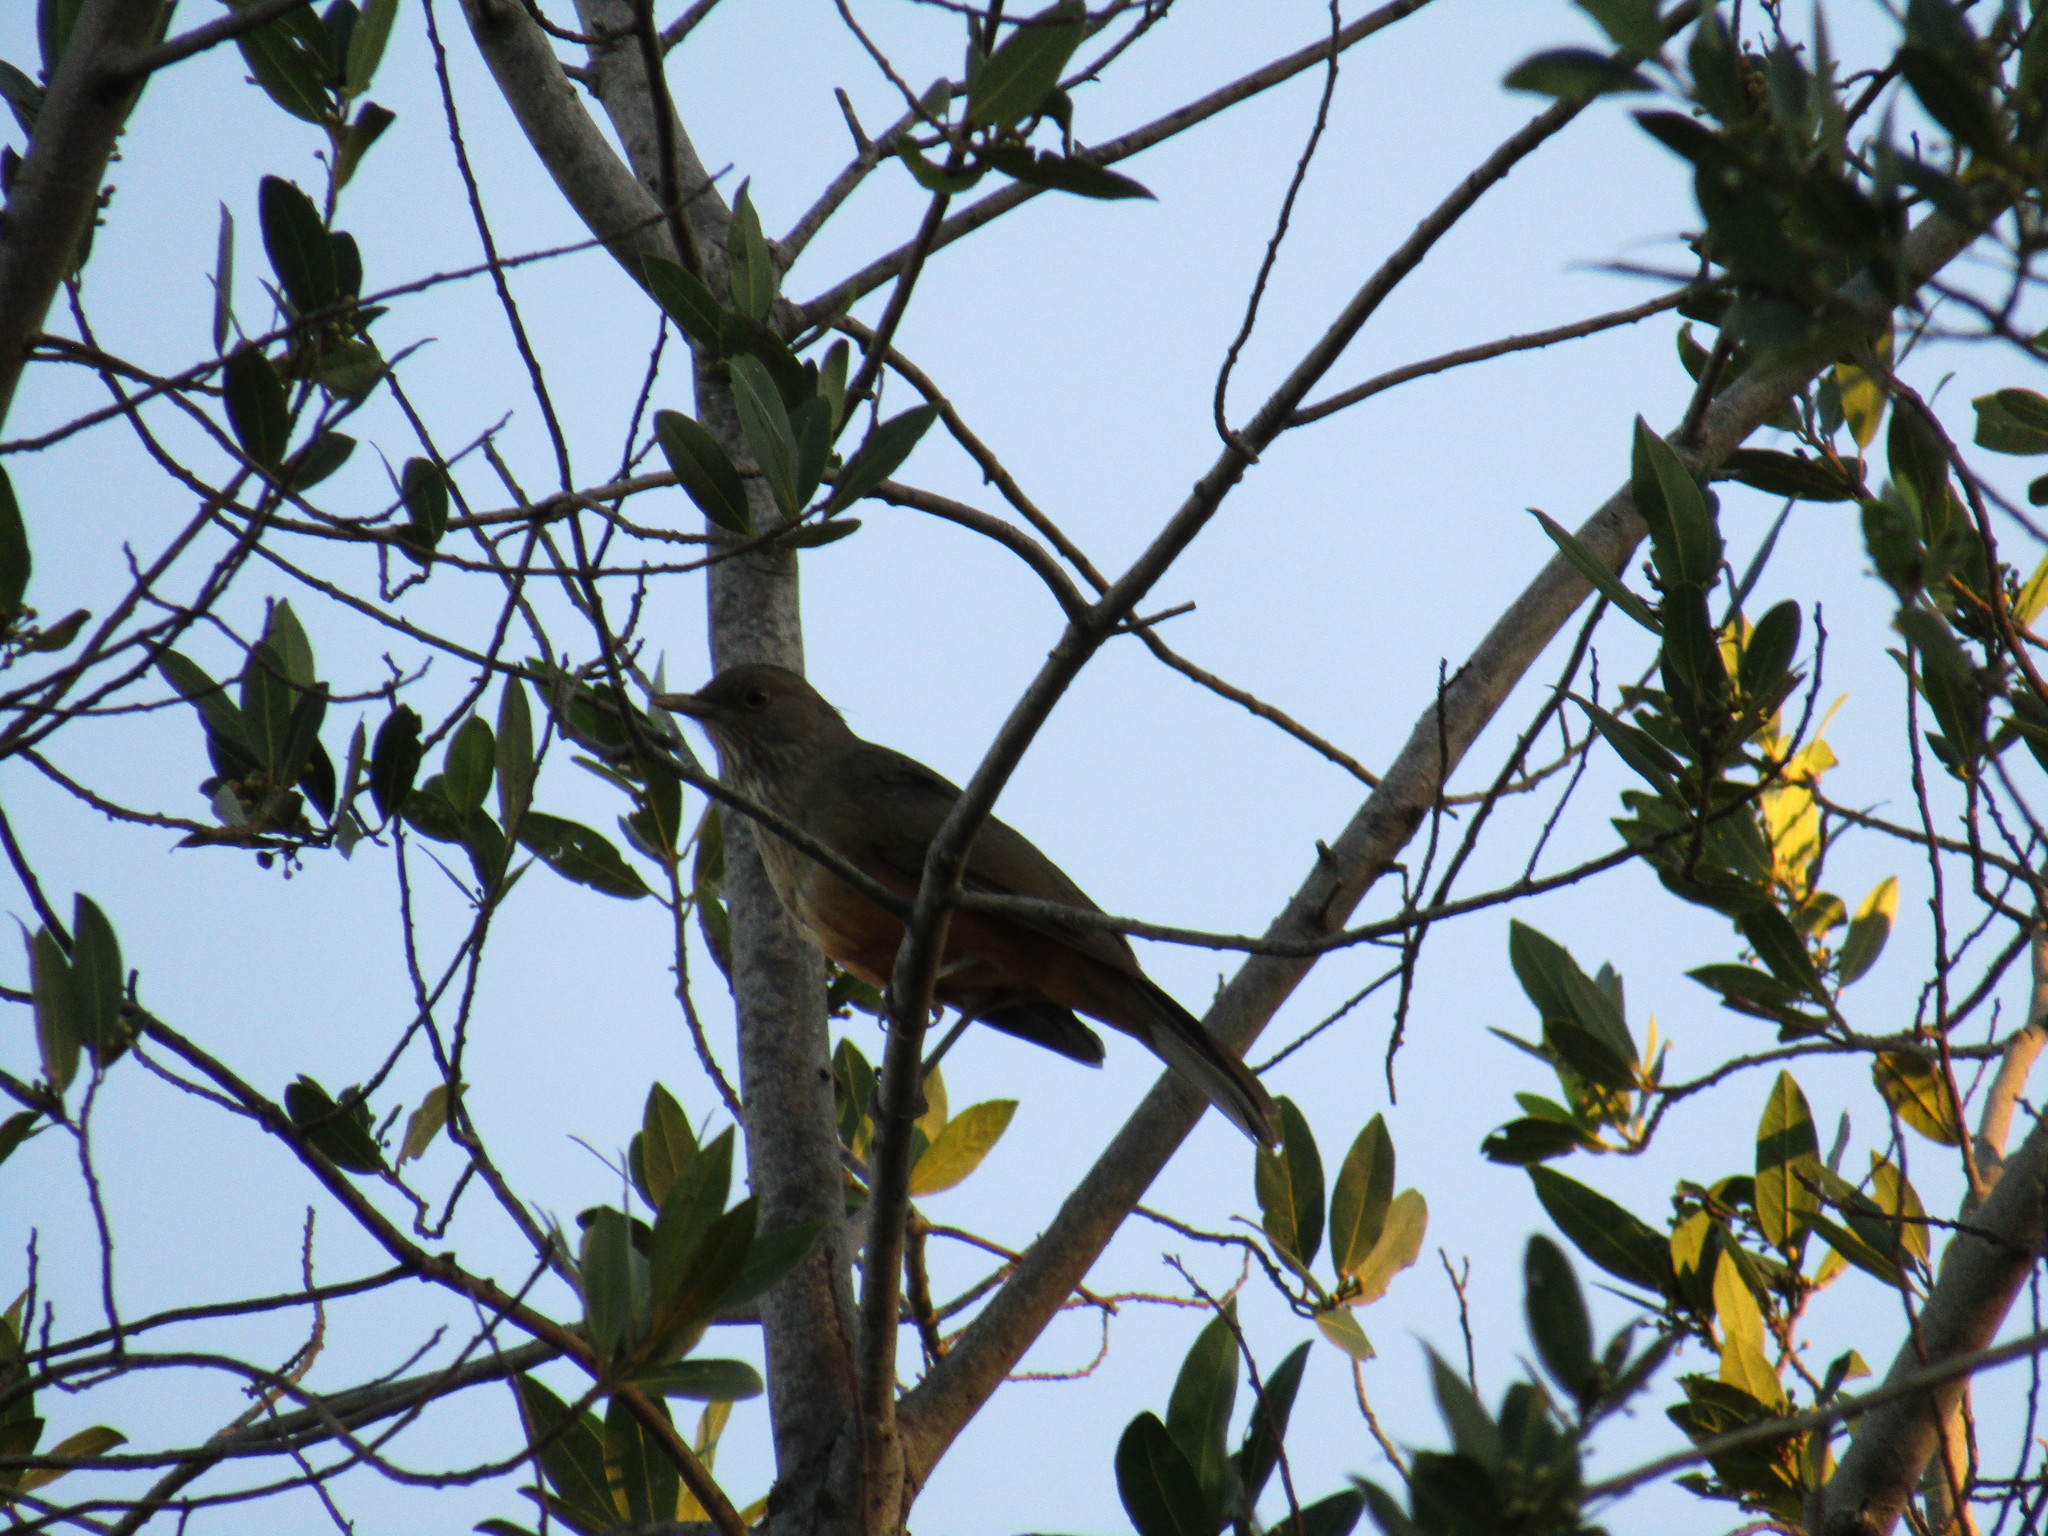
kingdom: Animalia
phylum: Chordata
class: Aves
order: Passeriformes
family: Turdidae
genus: Turdus
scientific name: Turdus rufiventris
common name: Rufous-bellied thrush
